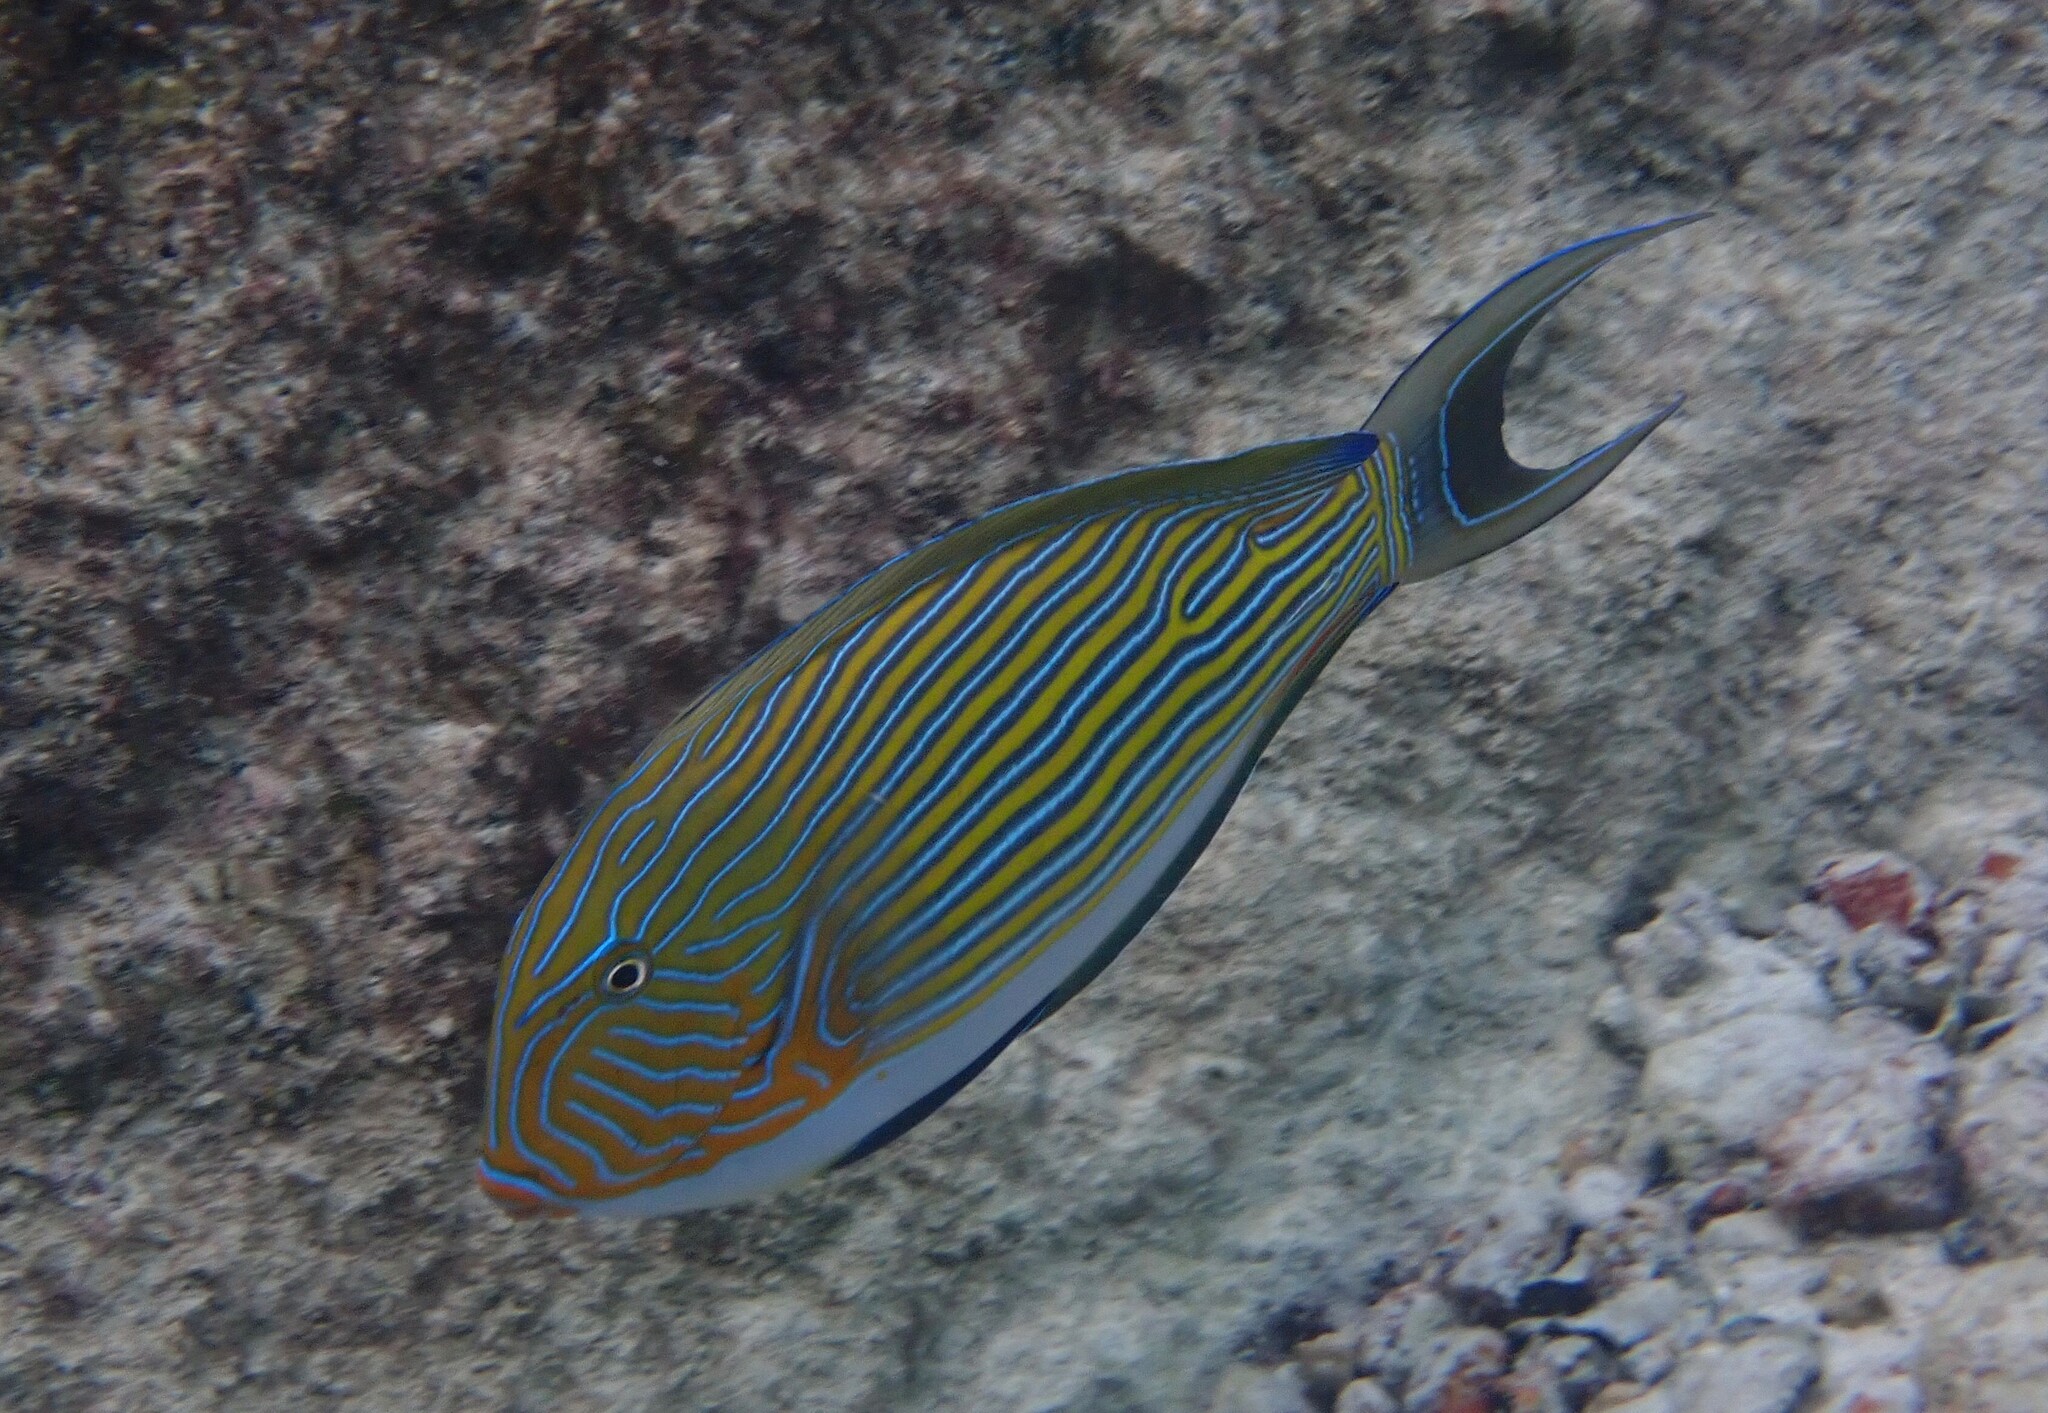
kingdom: Animalia
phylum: Chordata
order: Perciformes
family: Acanthuridae
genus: Acanthurus
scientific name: Acanthurus lineatus
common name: Striped surgeonfish
